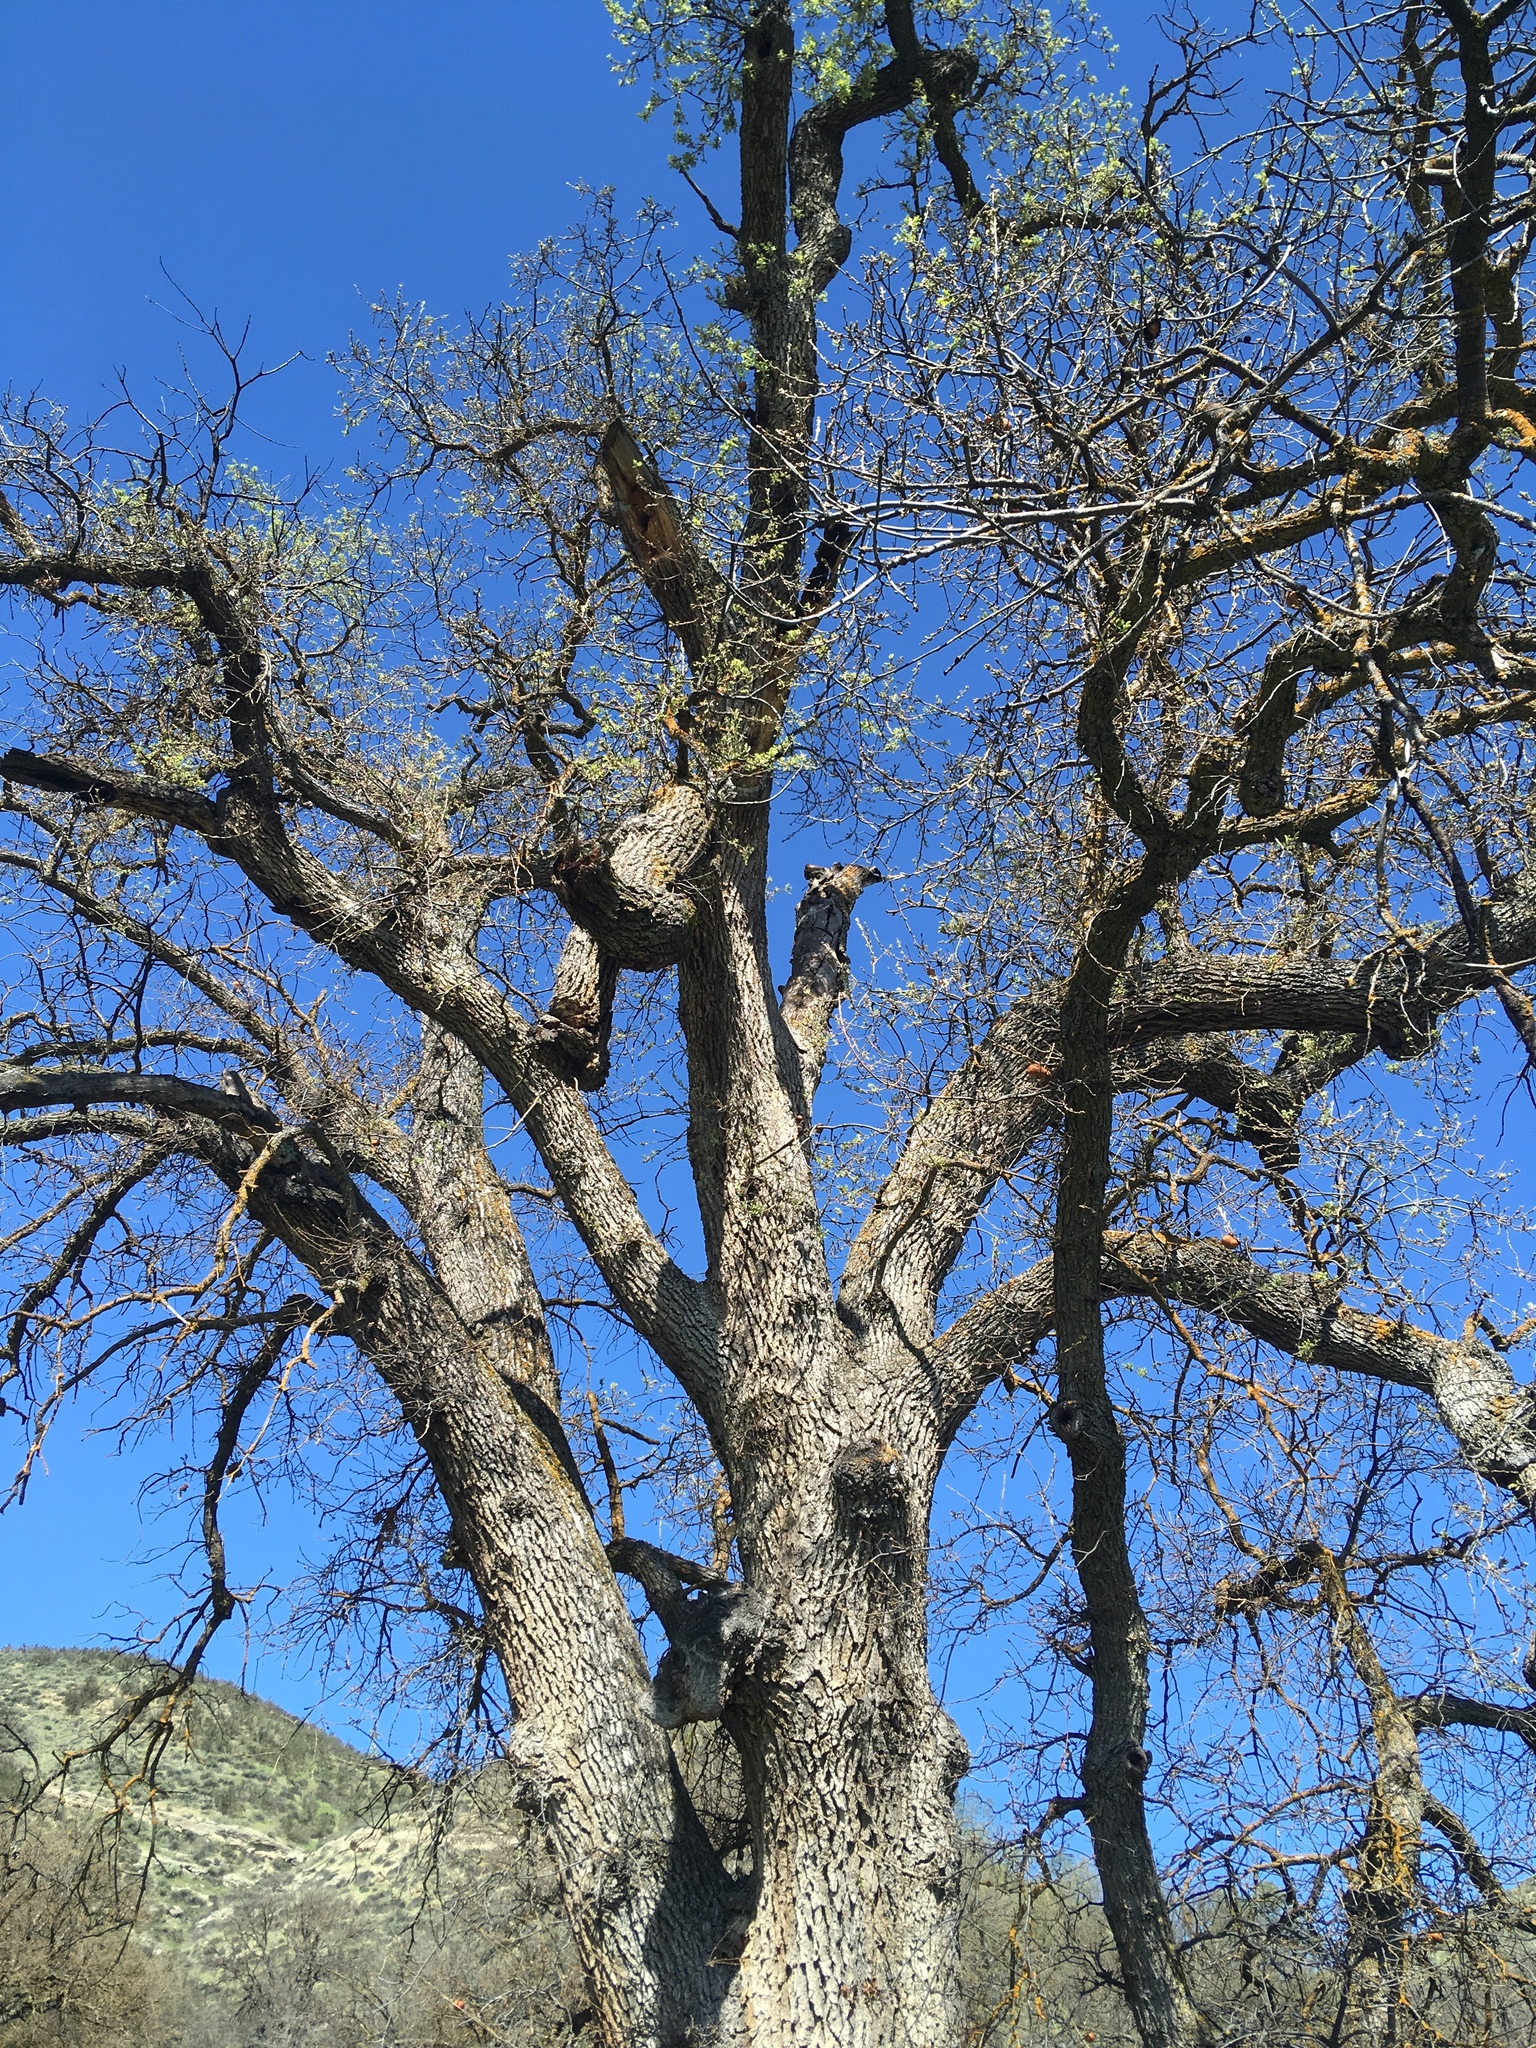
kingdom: Plantae
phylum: Tracheophyta
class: Magnoliopsida
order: Fagales
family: Fagaceae
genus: Quercus
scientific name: Quercus lobata
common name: Valley oak
